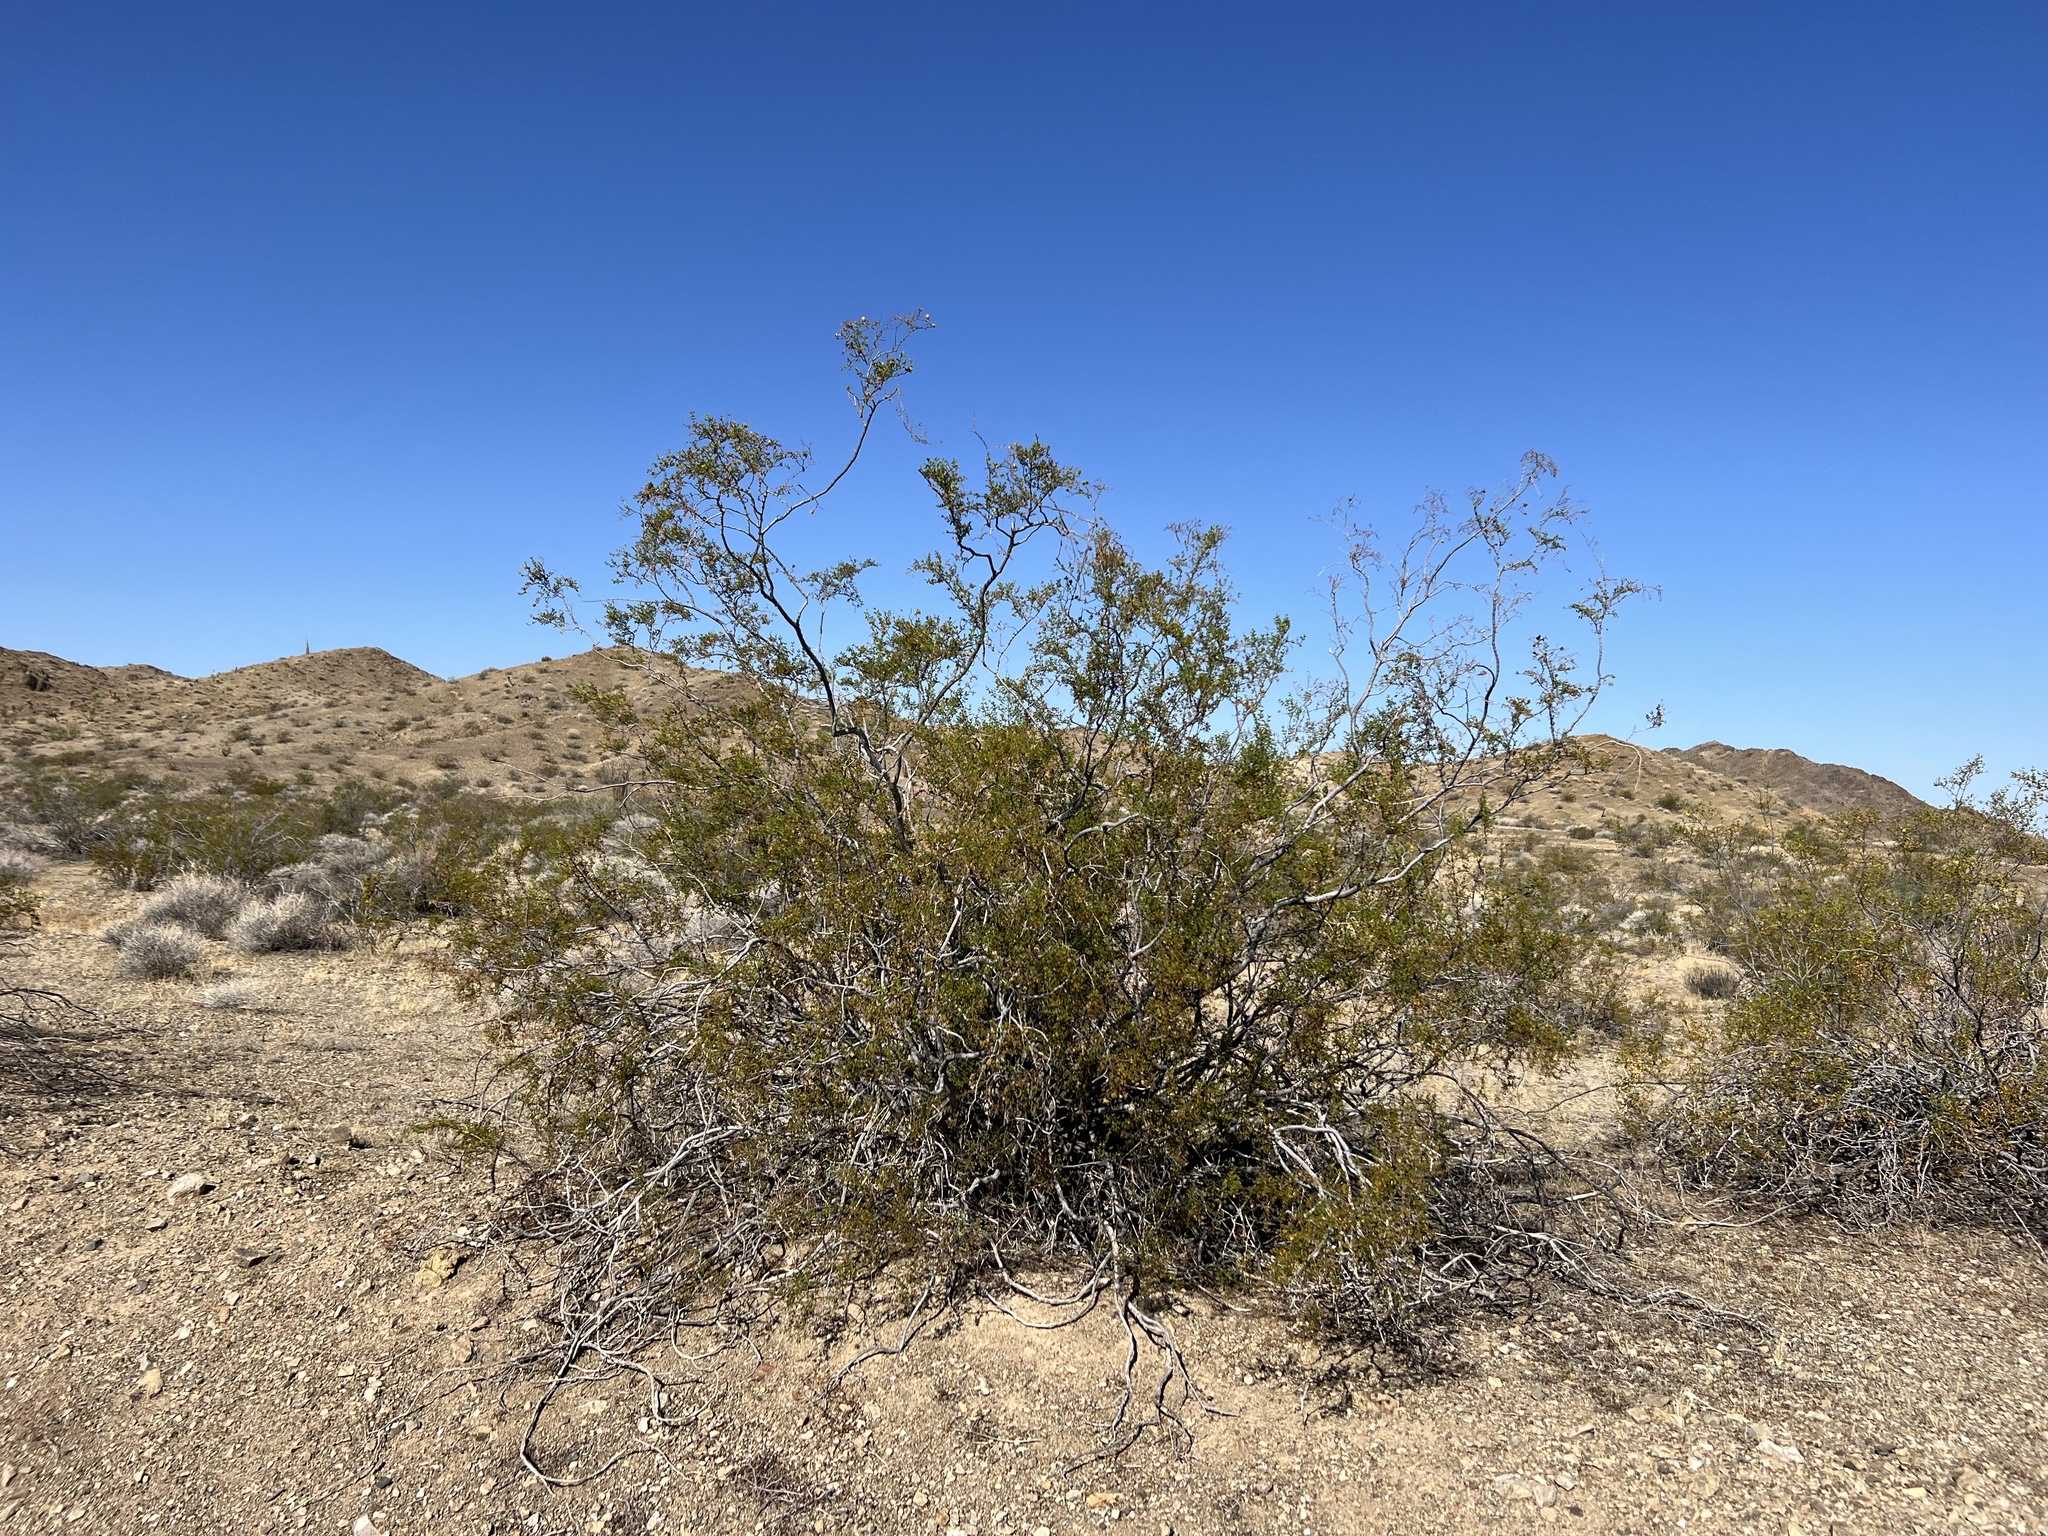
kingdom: Plantae
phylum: Tracheophyta
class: Magnoliopsida
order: Zygophyllales
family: Zygophyllaceae
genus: Larrea
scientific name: Larrea tridentata
